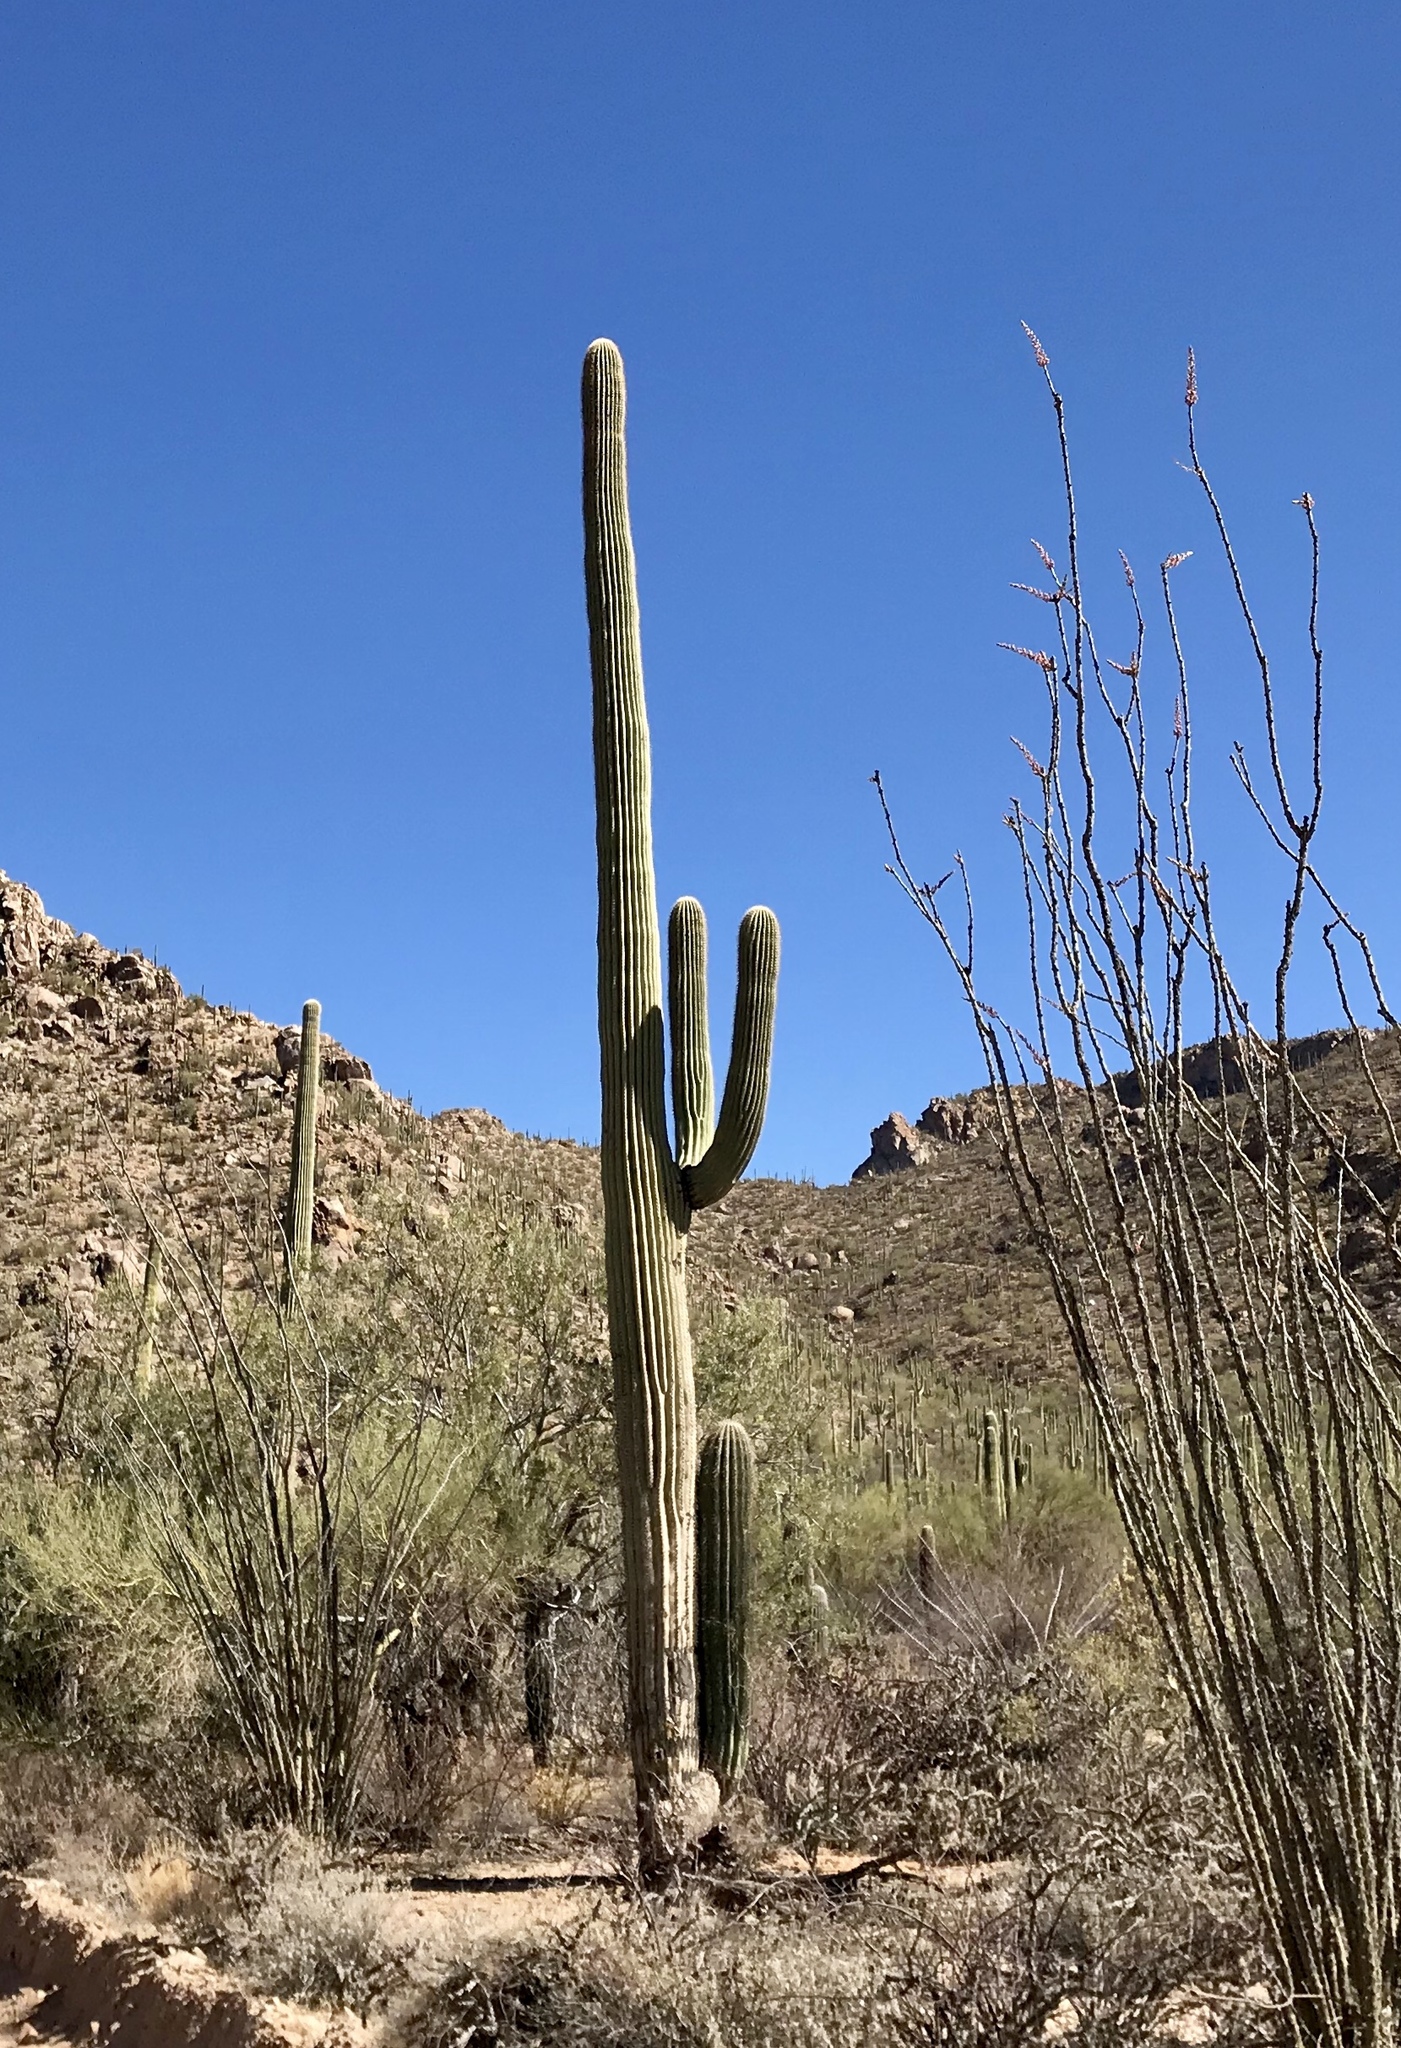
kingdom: Plantae
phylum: Tracheophyta
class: Magnoliopsida
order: Caryophyllales
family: Cactaceae
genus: Carnegiea
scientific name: Carnegiea gigantea
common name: Saguaro
